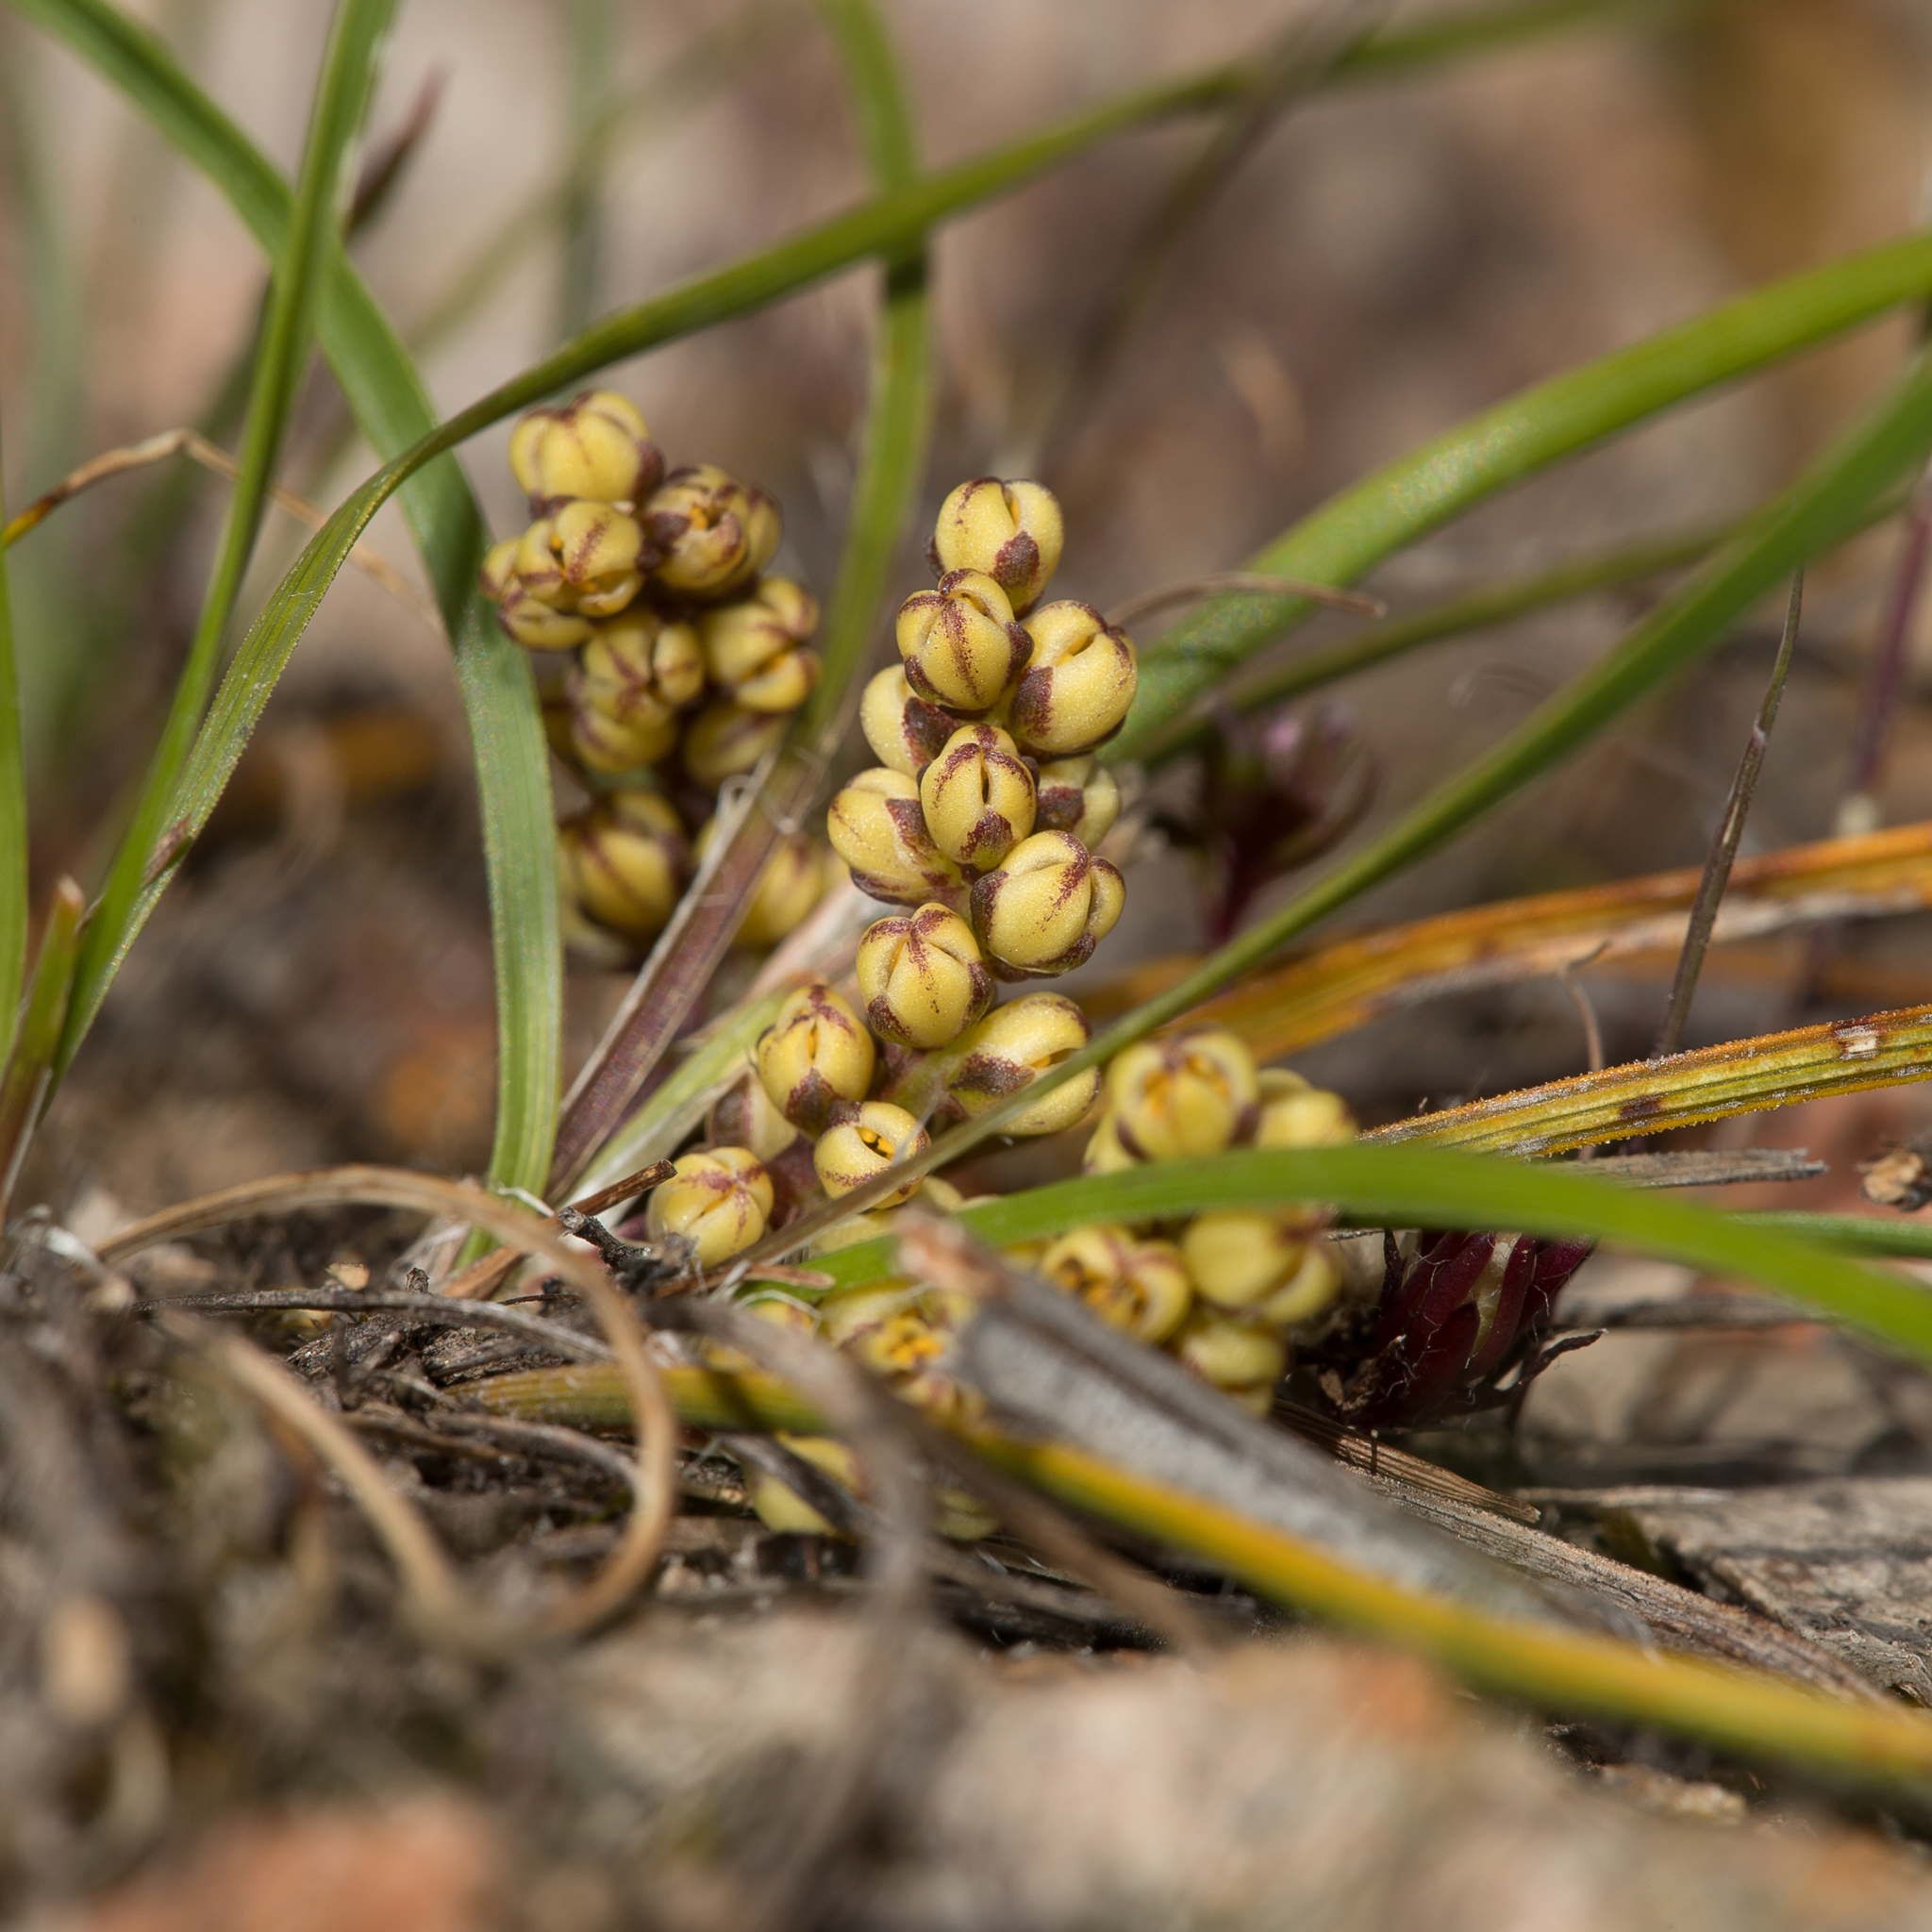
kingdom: Plantae
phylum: Tracheophyta
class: Liliopsida
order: Asparagales
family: Asparagaceae
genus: Lomandra
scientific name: Lomandra sororia
